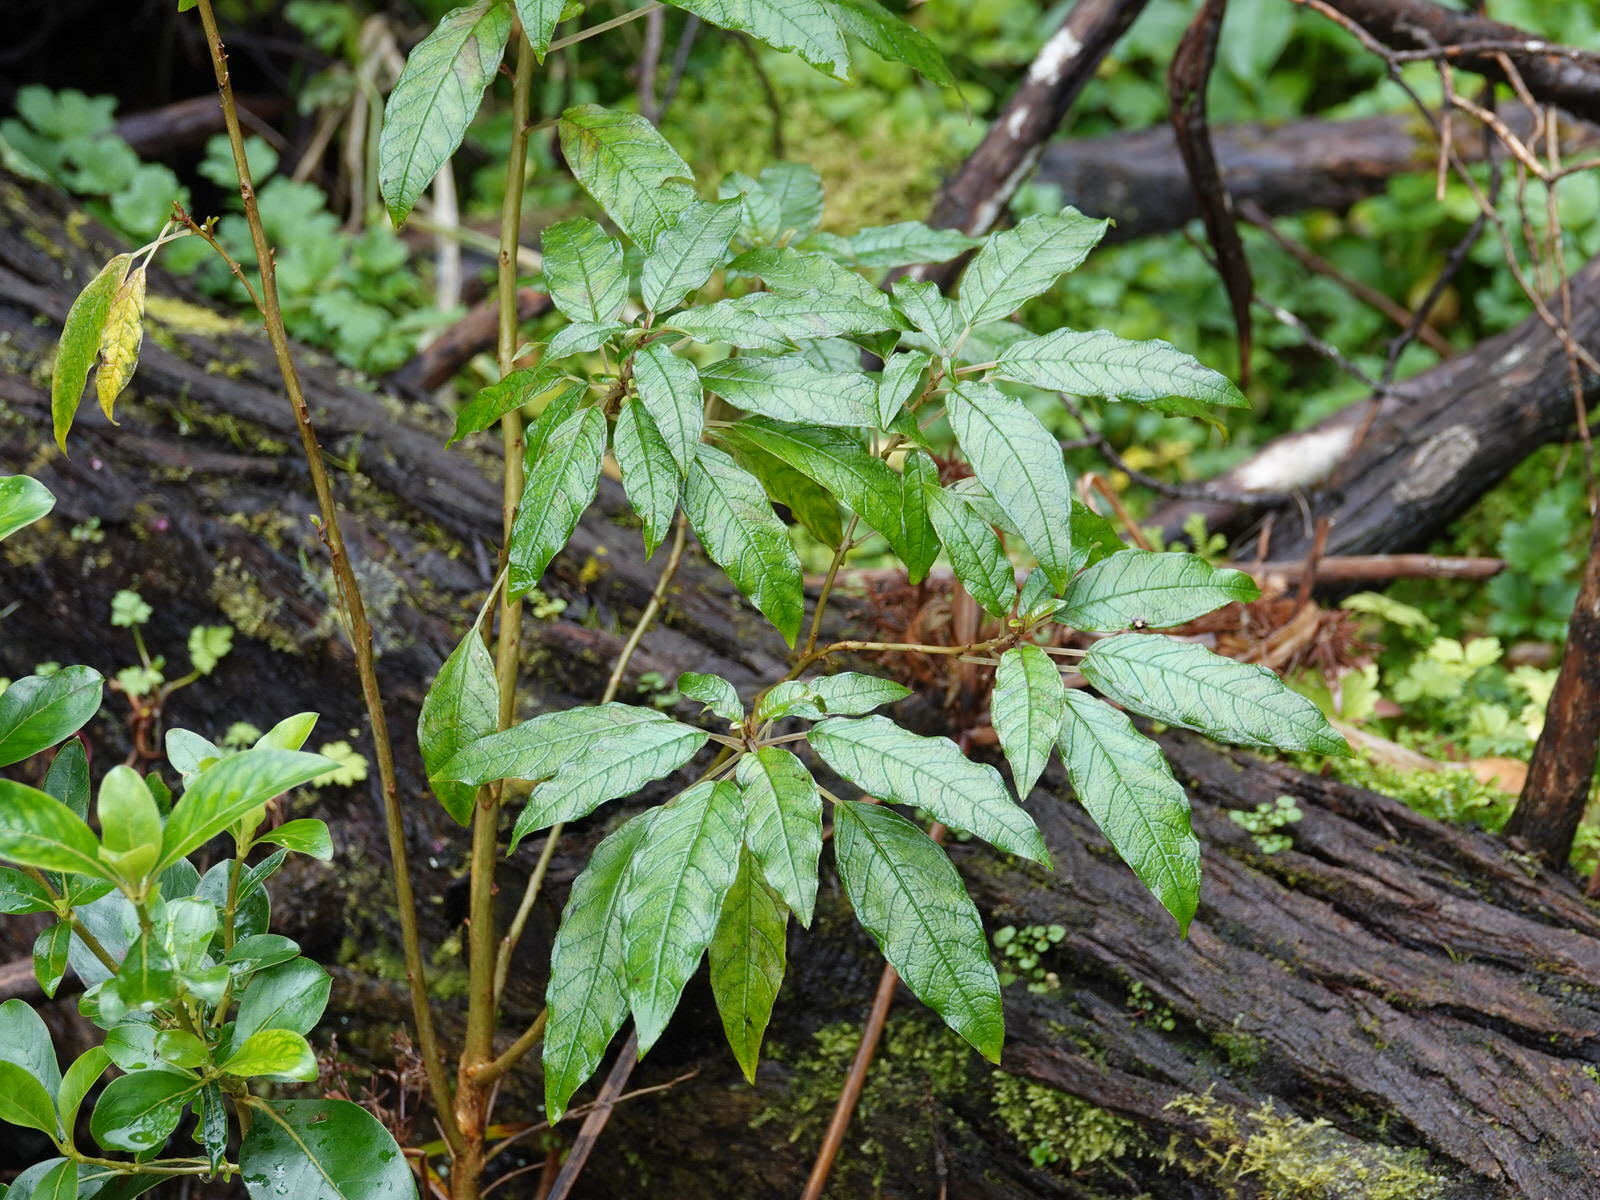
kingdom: Plantae
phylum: Tracheophyta
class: Magnoliopsida
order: Myrtales
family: Onagraceae
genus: Fuchsia
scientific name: Fuchsia excorticata
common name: Tree fuchsia
